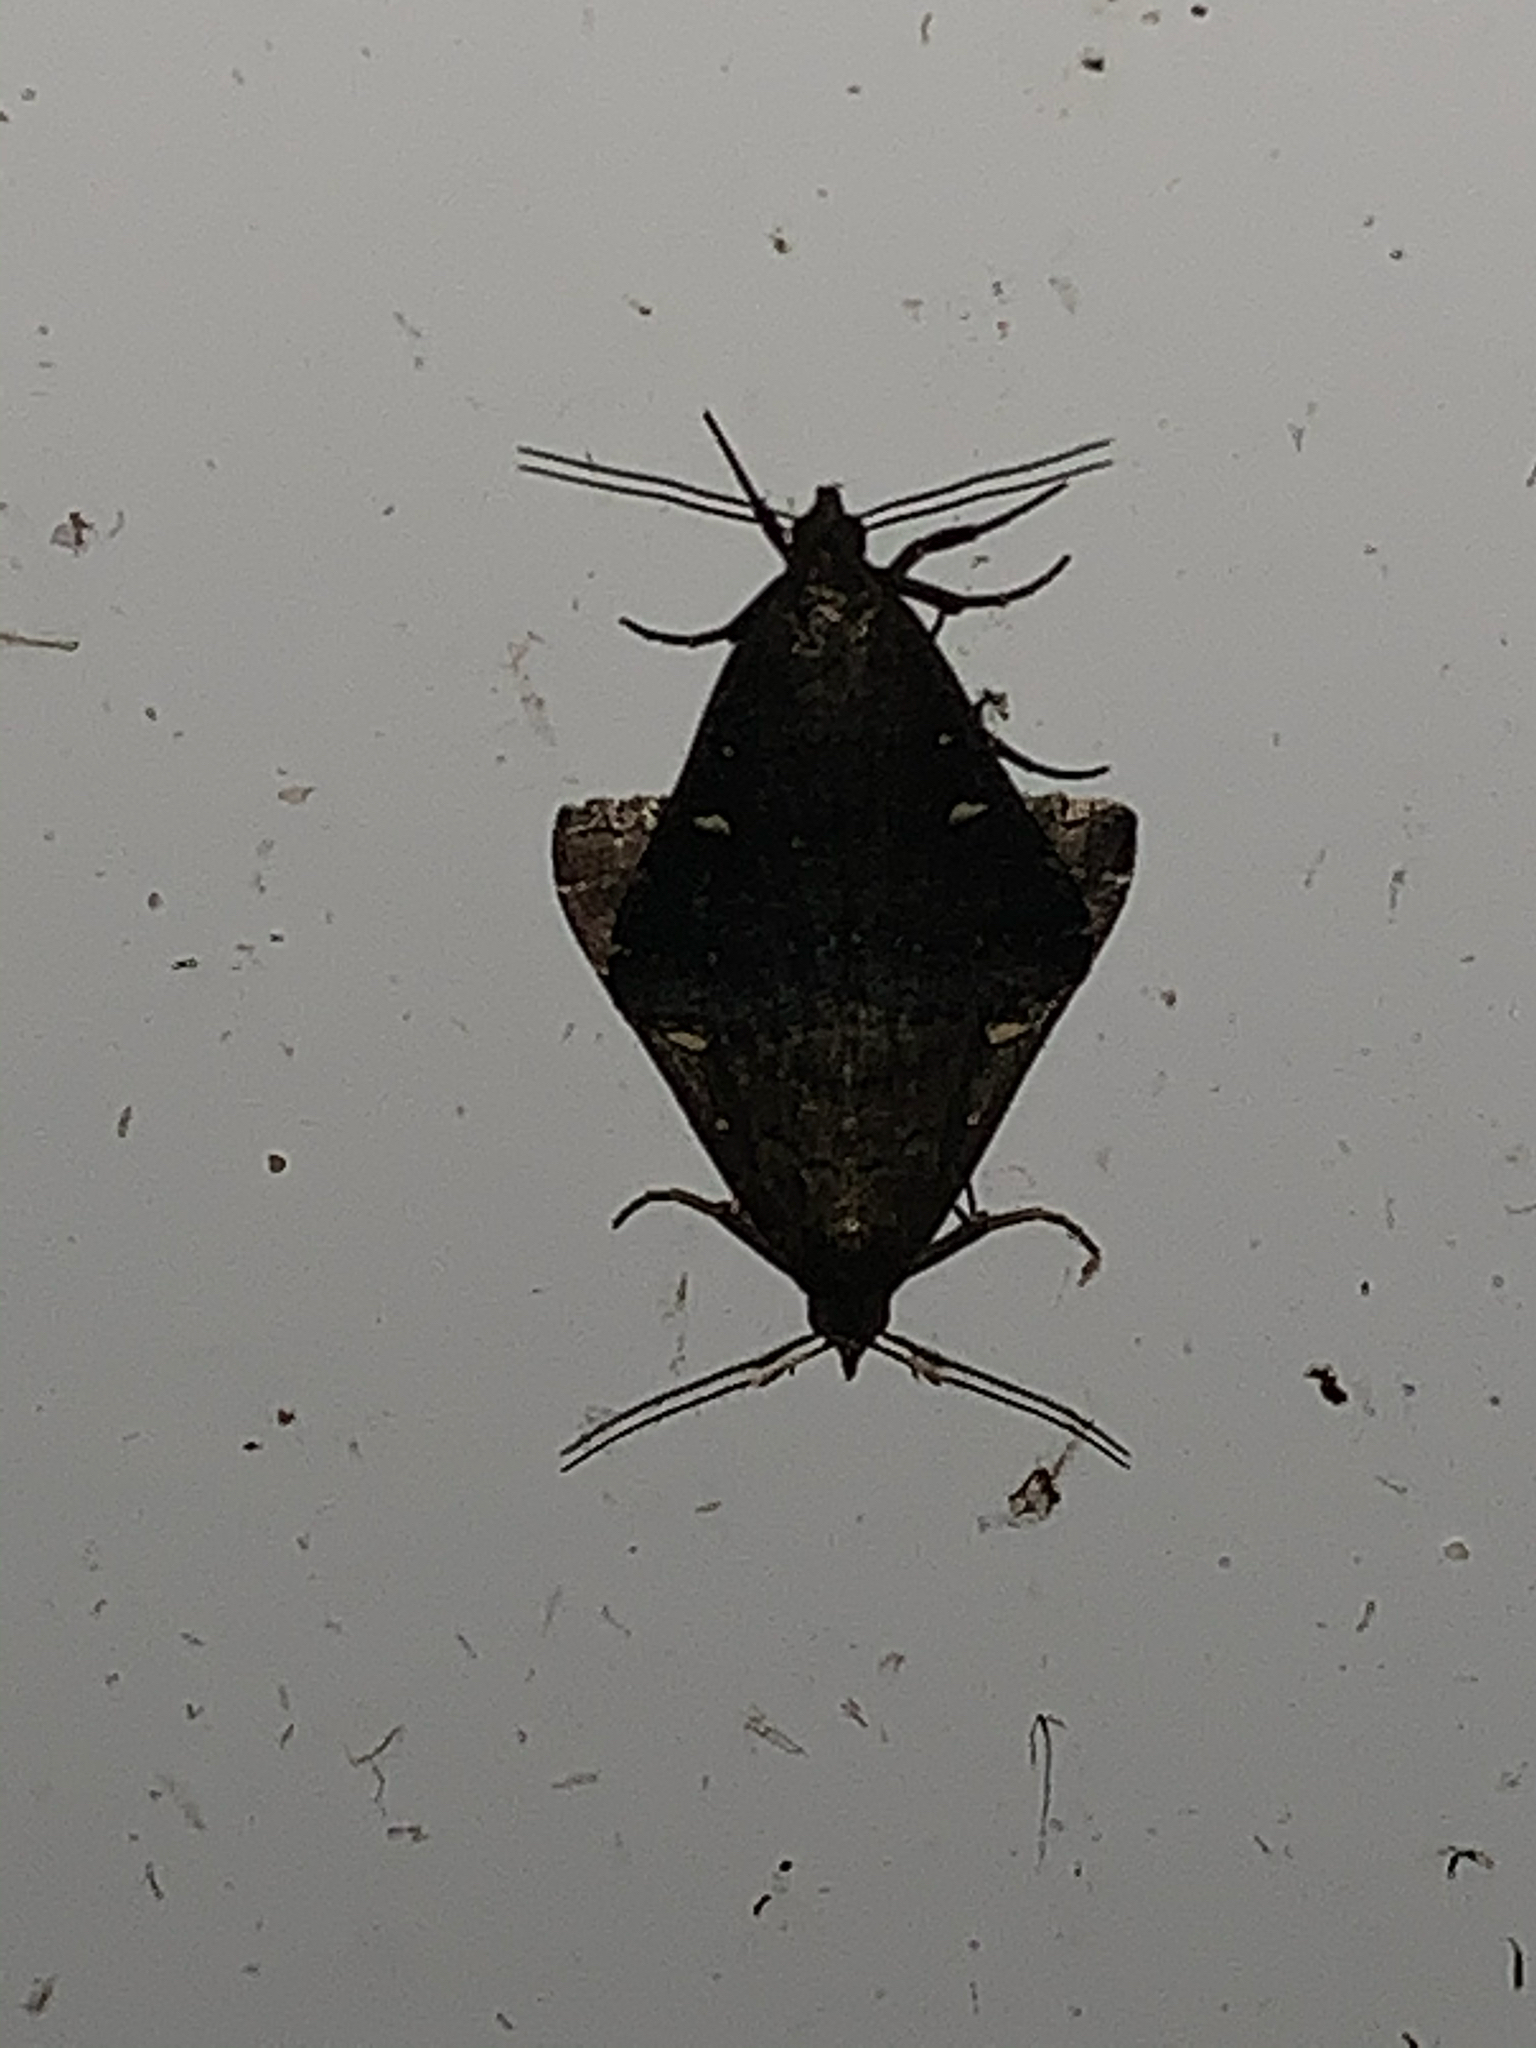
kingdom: Animalia
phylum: Arthropoda
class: Insecta
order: Lepidoptera
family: Erebidae
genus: Tetanolita
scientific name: Tetanolita mynesalis
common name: Smoky tetanolita moth
